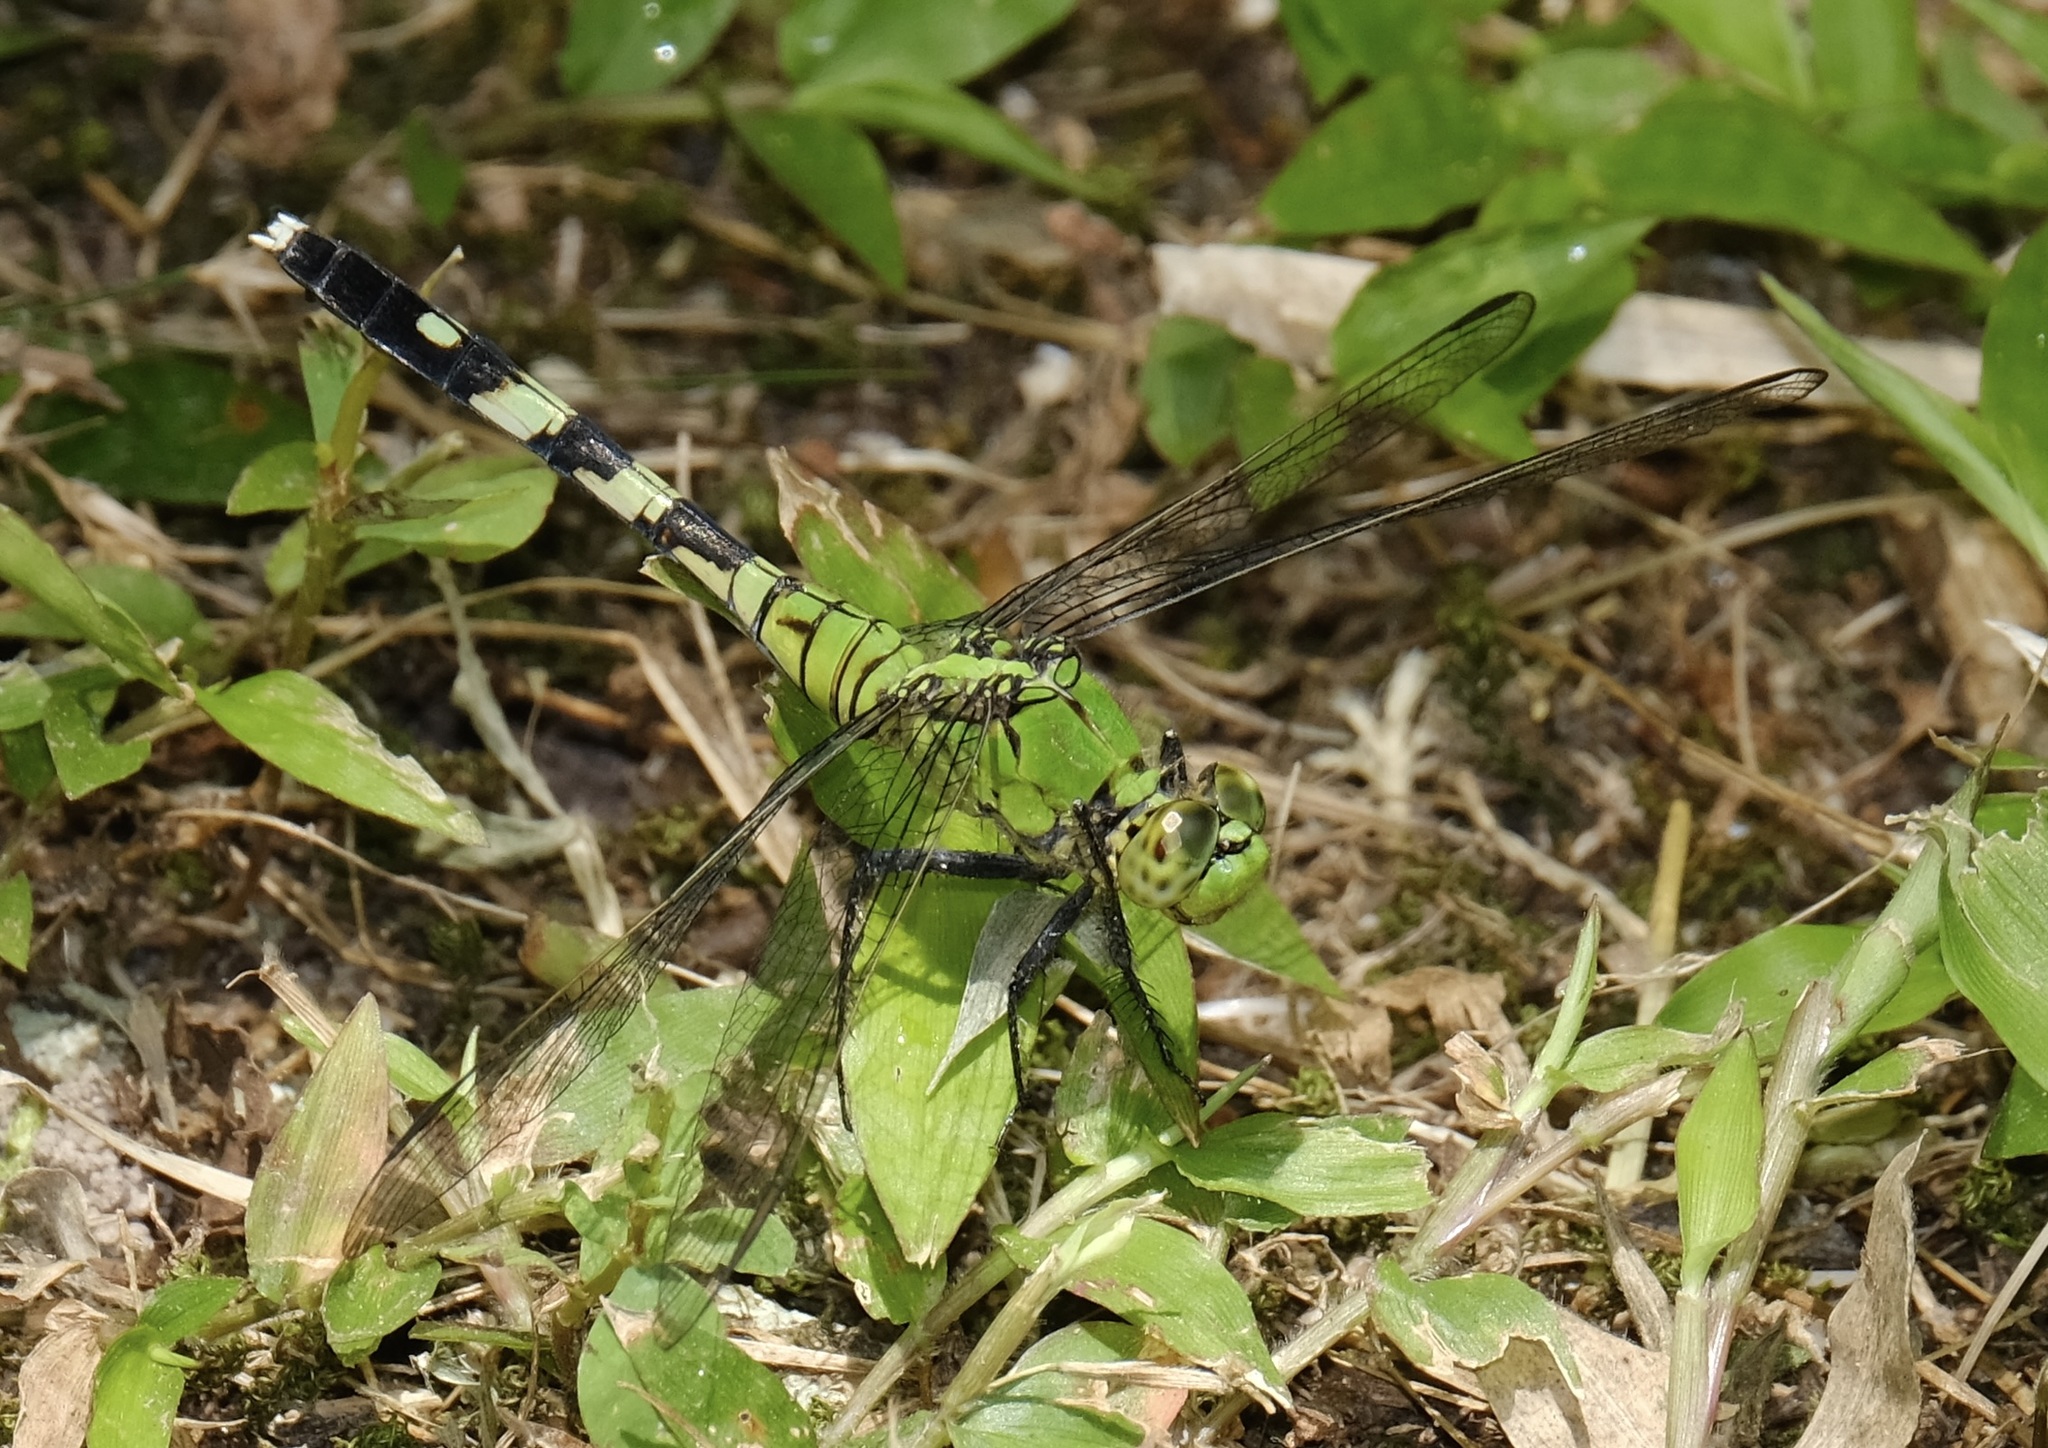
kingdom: Animalia
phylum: Arthropoda
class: Insecta
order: Odonata
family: Libellulidae
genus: Erythemis
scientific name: Erythemis simplicicollis
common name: Eastern pondhawk
